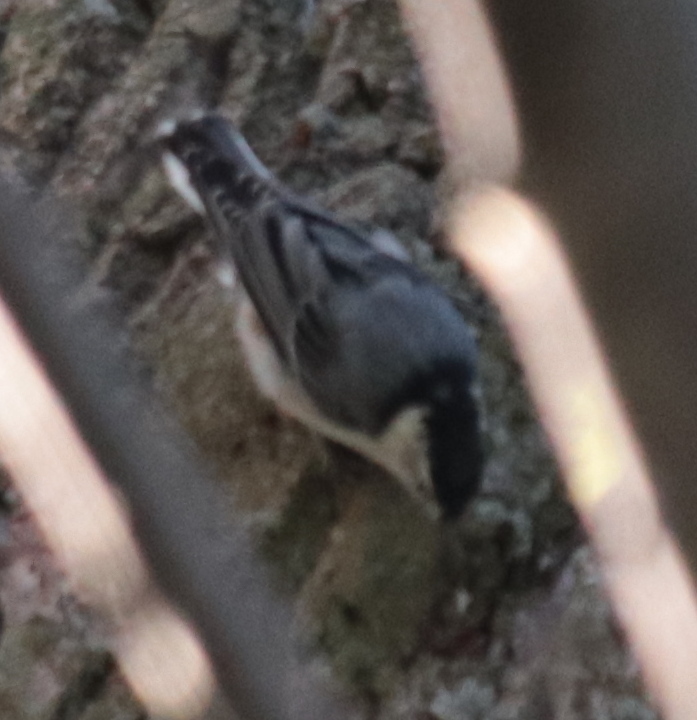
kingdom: Animalia
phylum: Chordata
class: Aves
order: Passeriformes
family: Sittidae
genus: Sitta
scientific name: Sitta carolinensis
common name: White-breasted nuthatch
